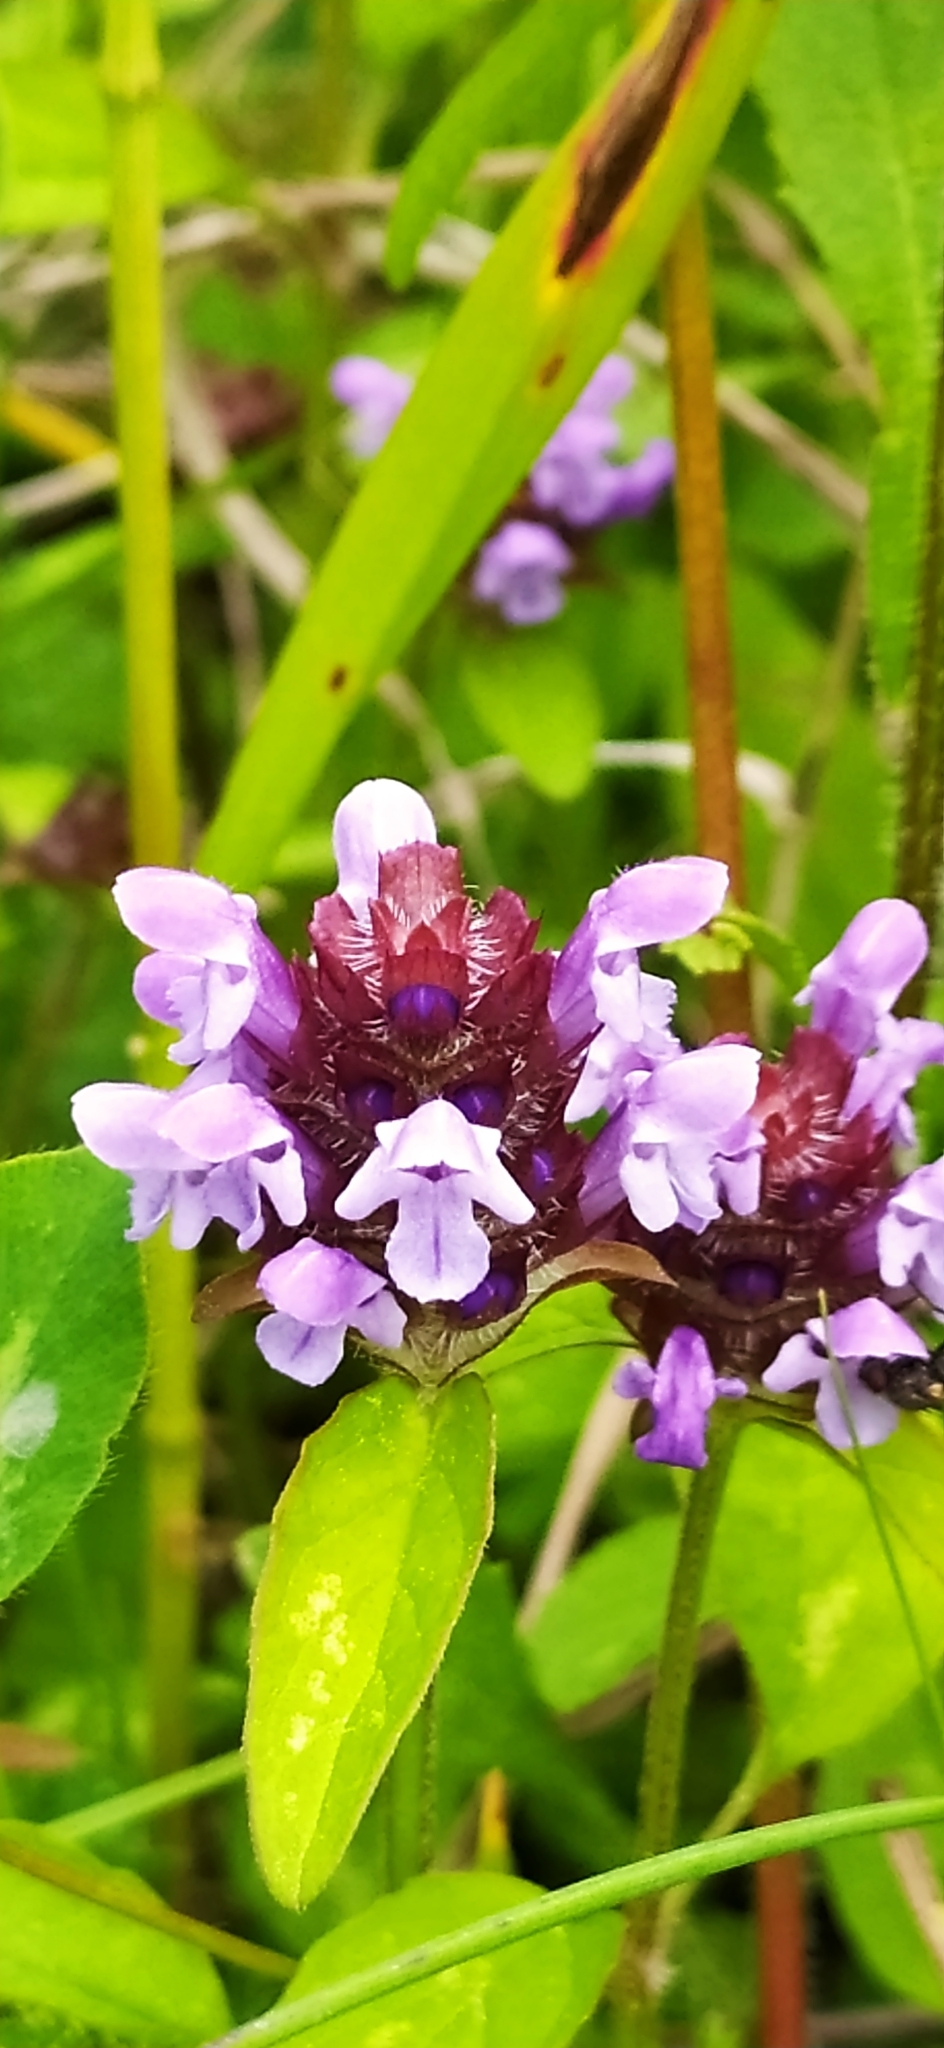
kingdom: Plantae
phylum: Tracheophyta
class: Magnoliopsida
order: Lamiales
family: Lamiaceae
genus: Prunella
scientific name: Prunella vulgaris
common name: Heal-all
